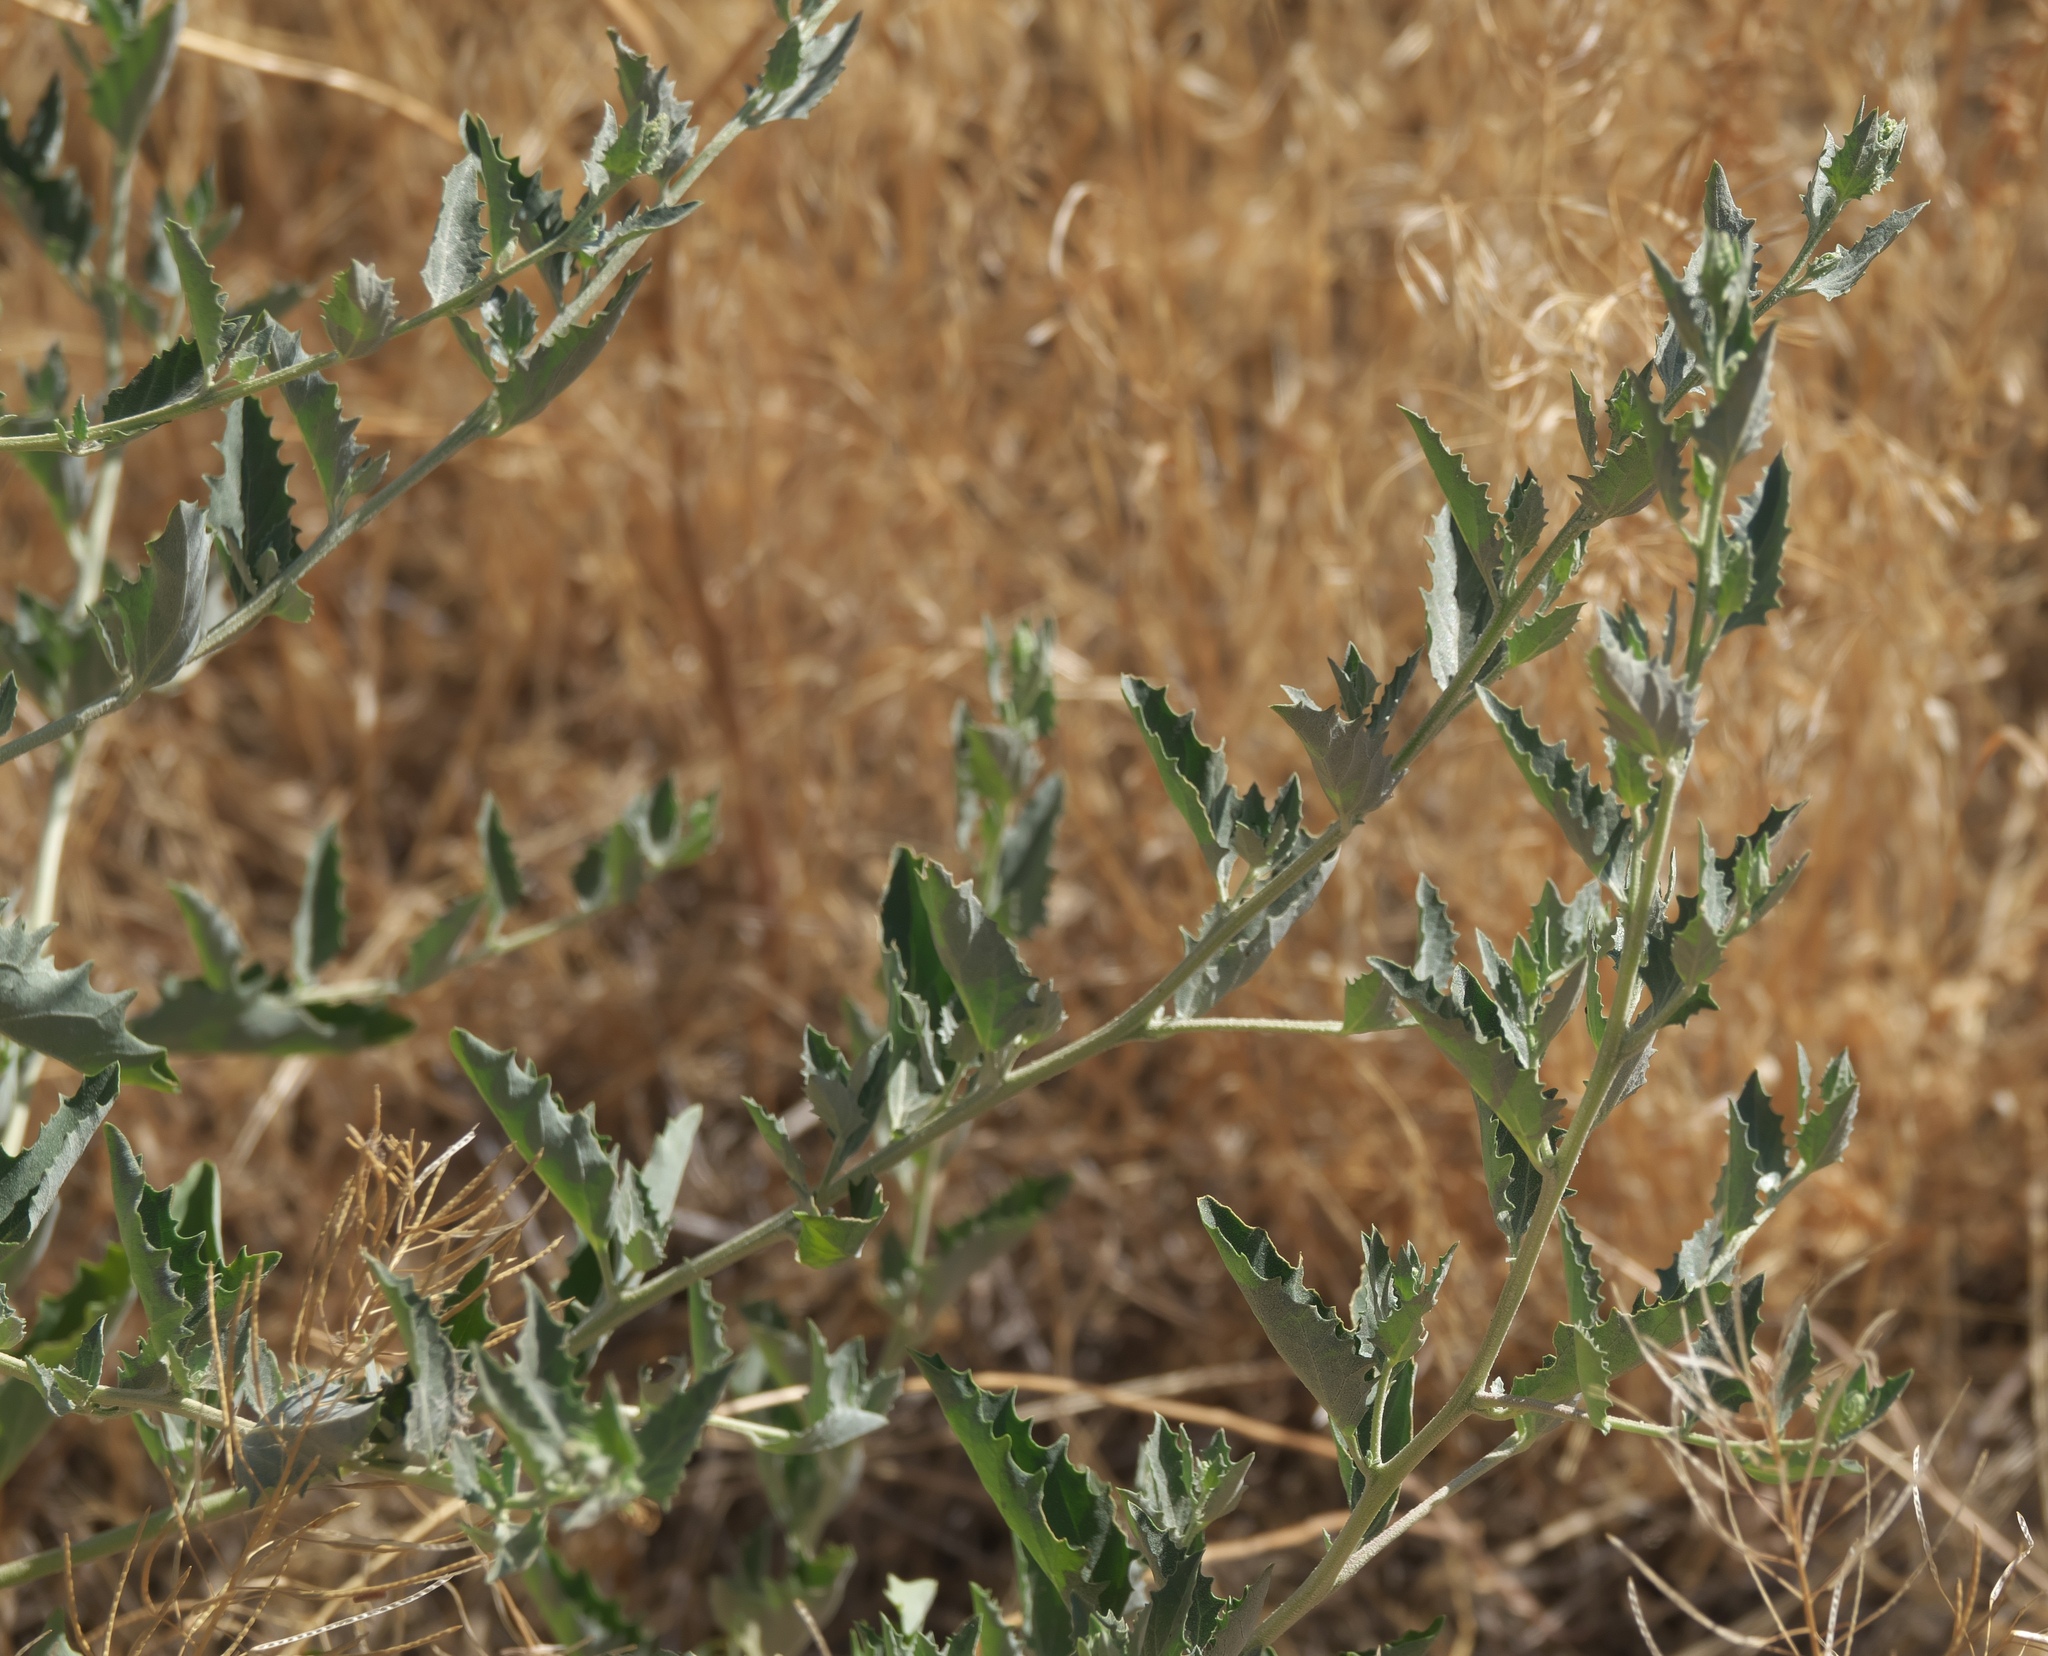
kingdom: Plantae
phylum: Tracheophyta
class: Magnoliopsida
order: Cornales
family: Loasaceae
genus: Mentzelia
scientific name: Mentzelia laevicaulis
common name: Smooth-stem blazingstar
